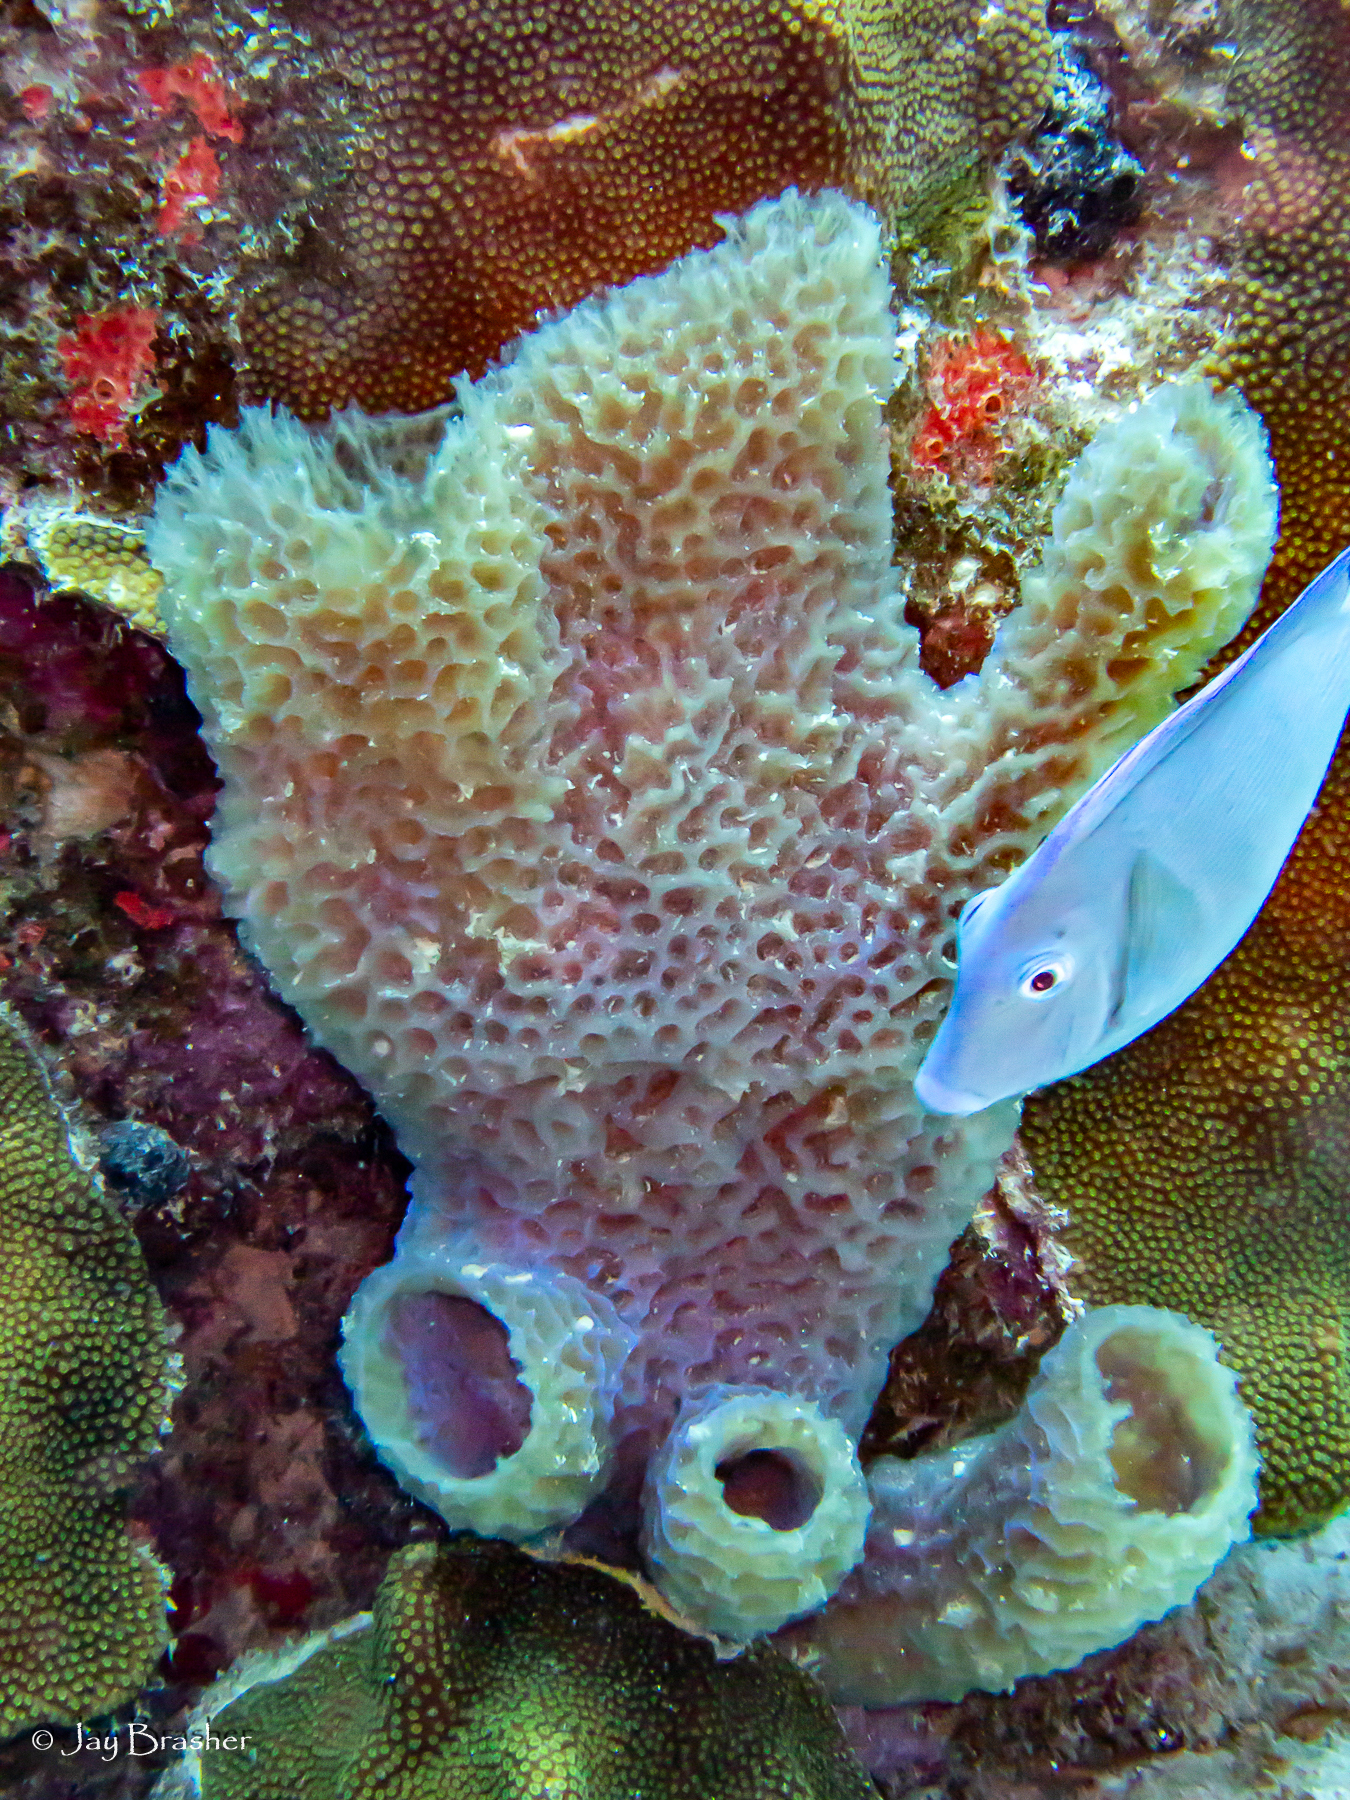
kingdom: Animalia
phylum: Porifera
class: Demospongiae
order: Haplosclerida
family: Callyspongiidae
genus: Callyspongia
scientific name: Callyspongia plicifera
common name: Azure vase sponge
